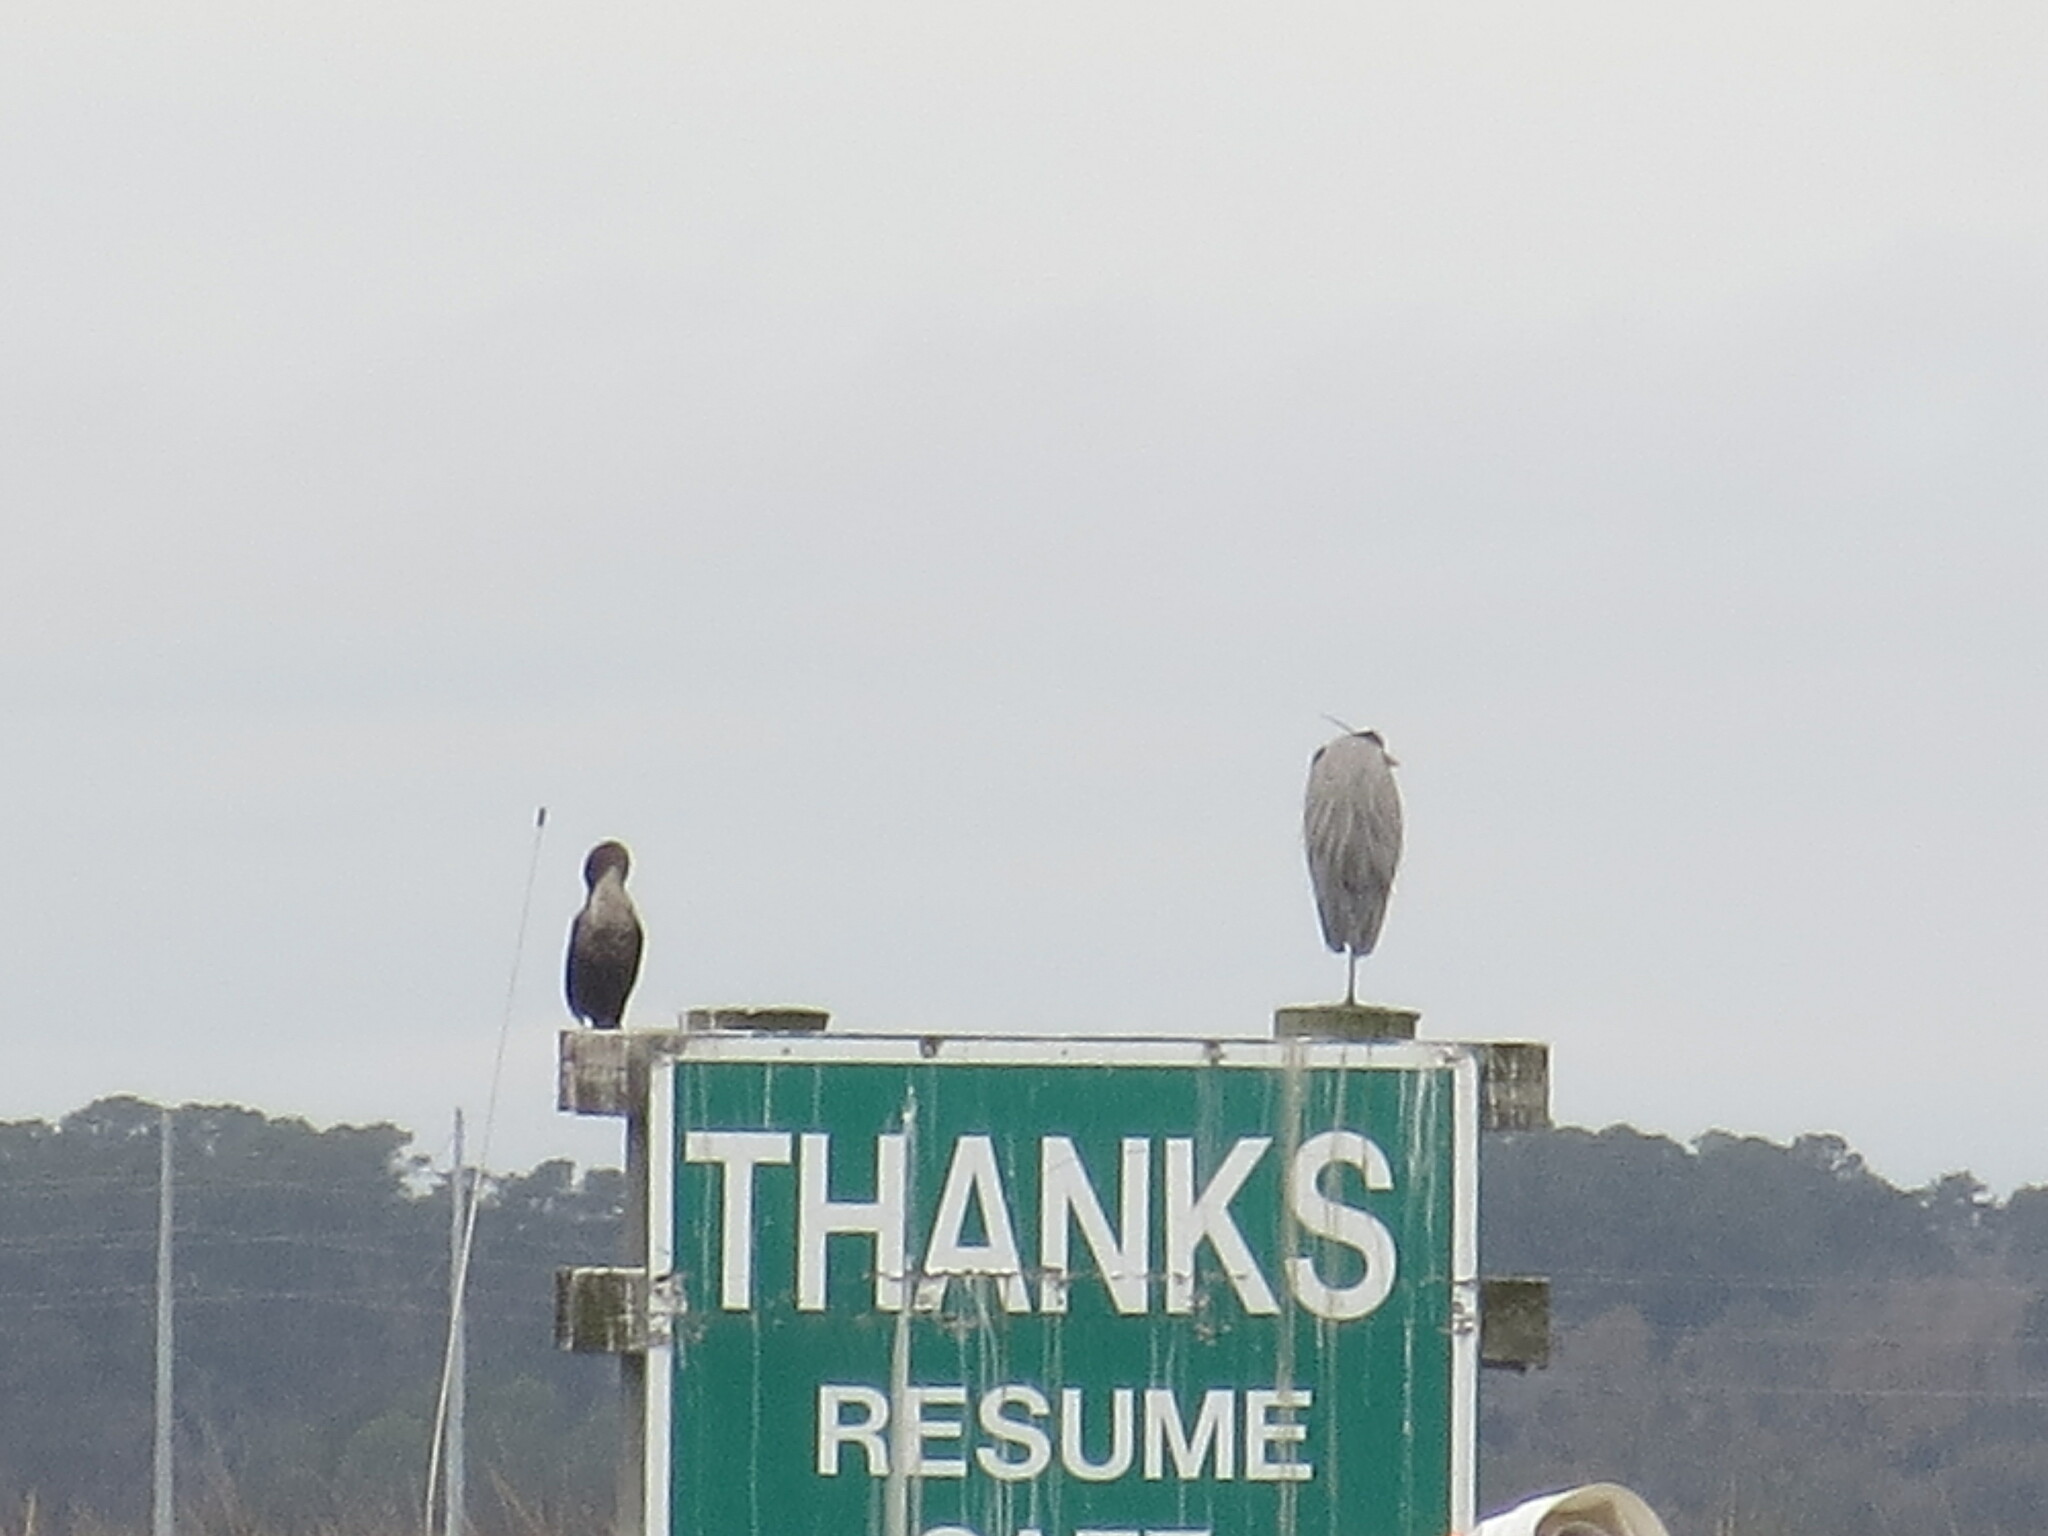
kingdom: Animalia
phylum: Chordata
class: Aves
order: Pelecaniformes
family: Ardeidae
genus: Nyctanassa
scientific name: Nyctanassa violacea
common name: Yellow-crowned night heron
